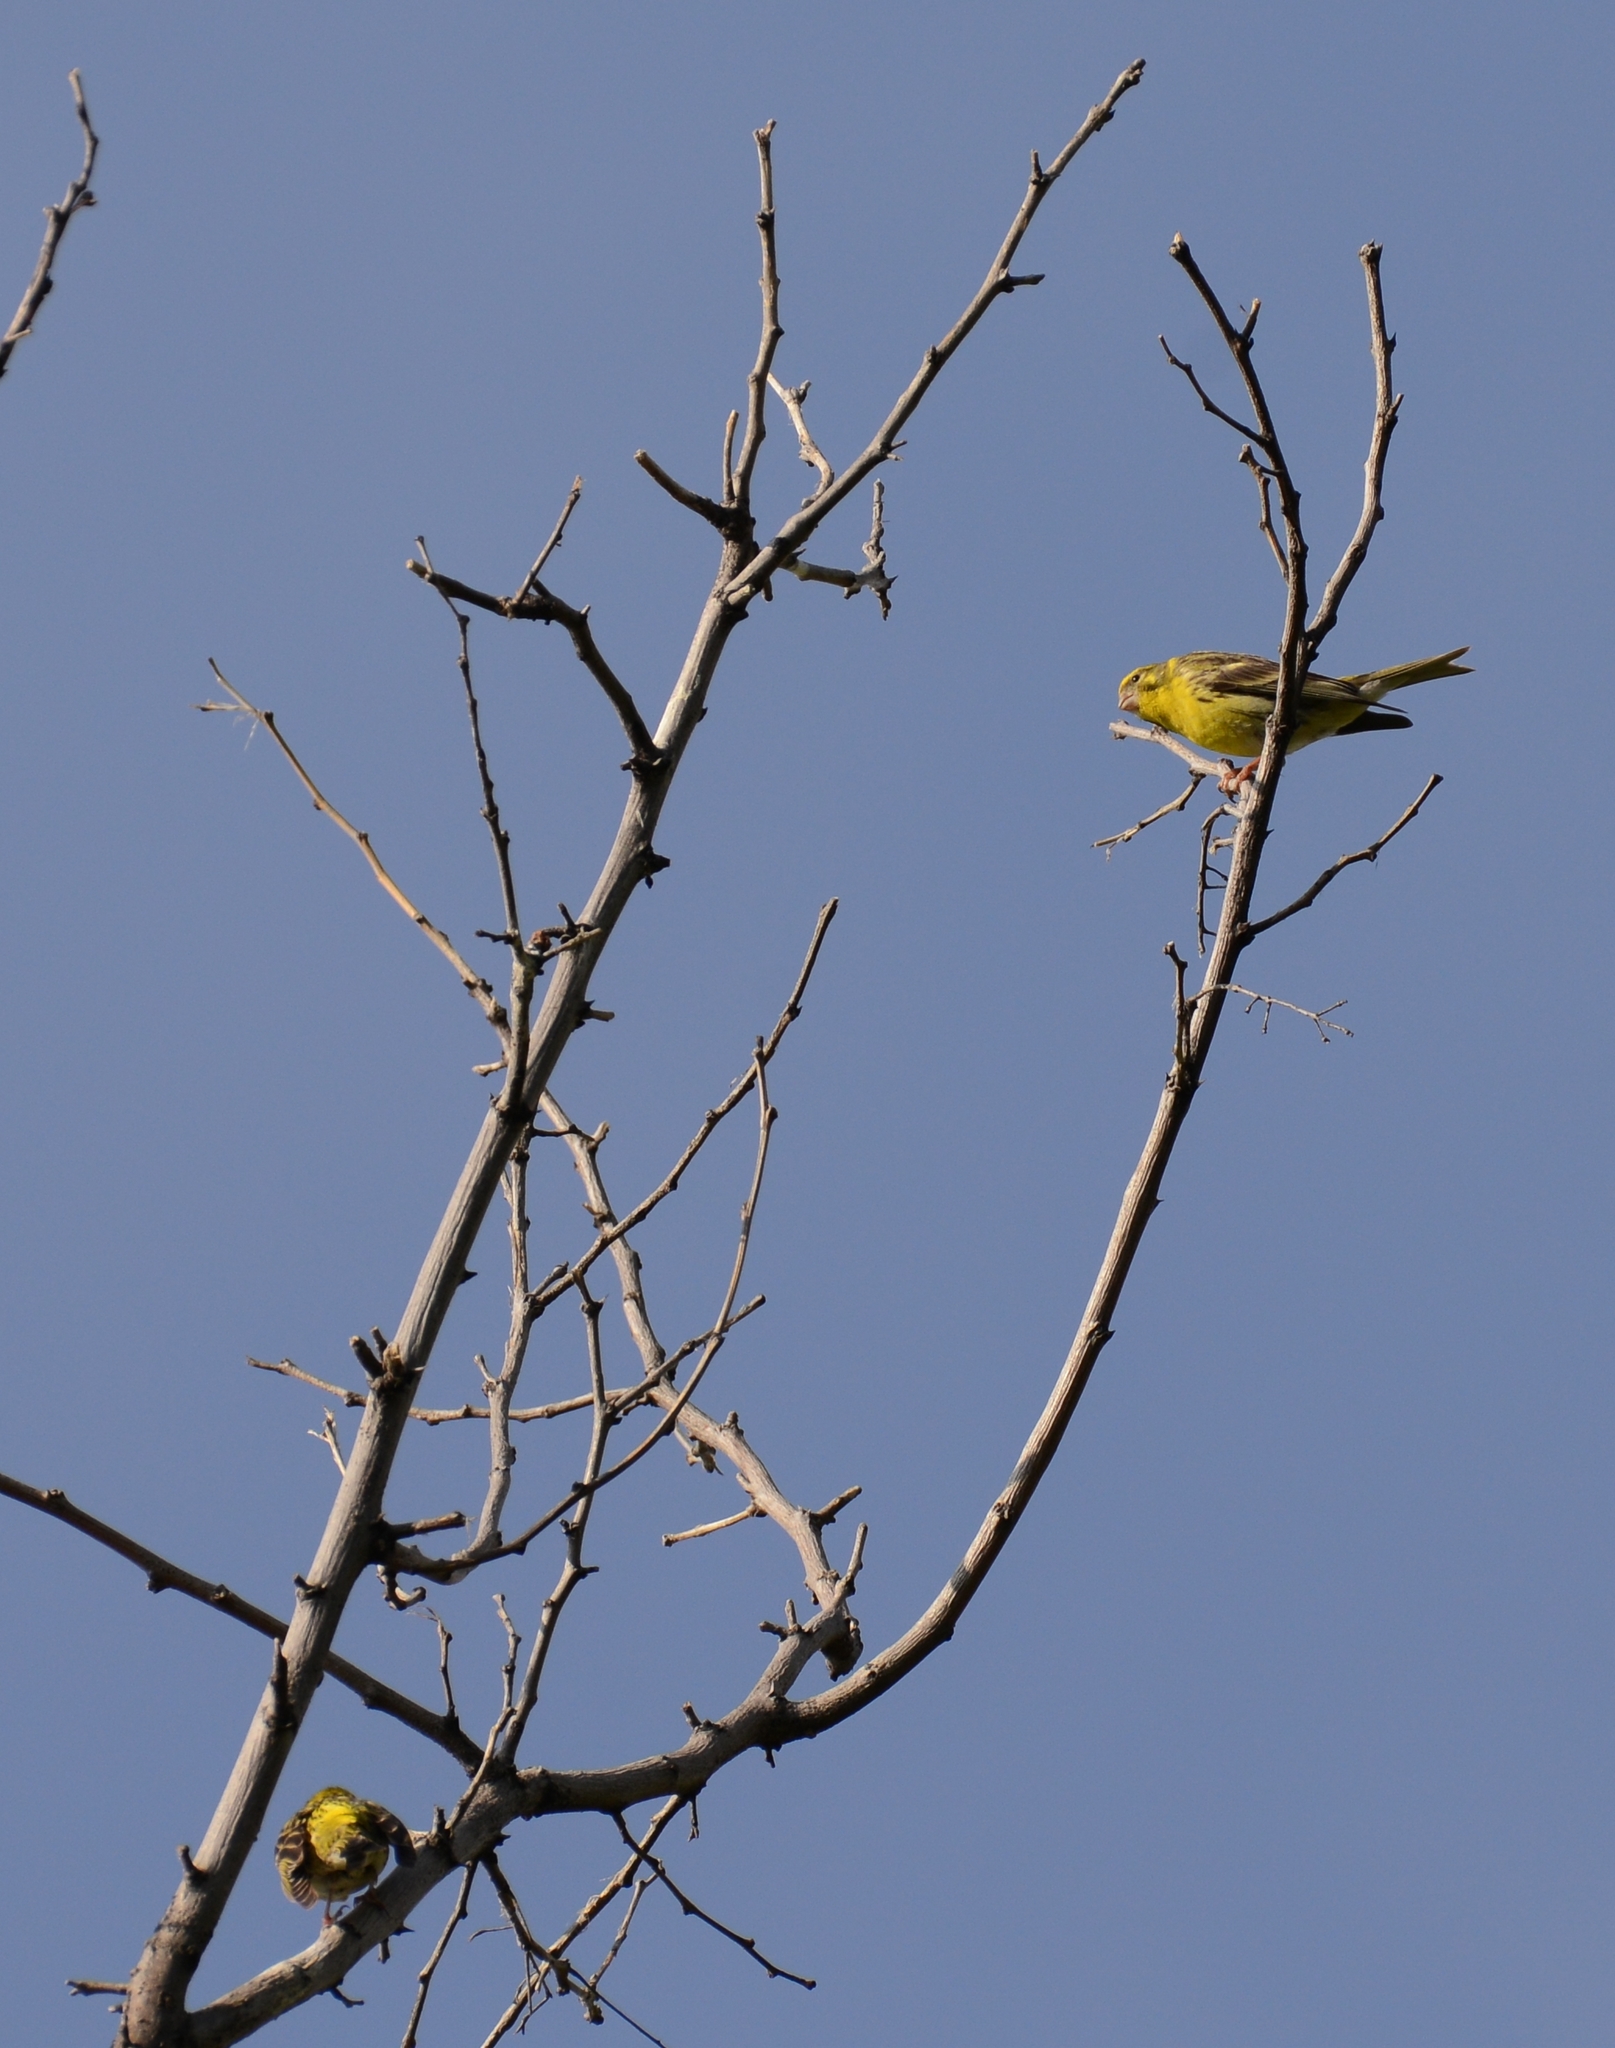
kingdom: Animalia
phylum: Chordata
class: Aves
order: Passeriformes
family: Fringillidae
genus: Serinus
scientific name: Serinus serinus
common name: European serin
